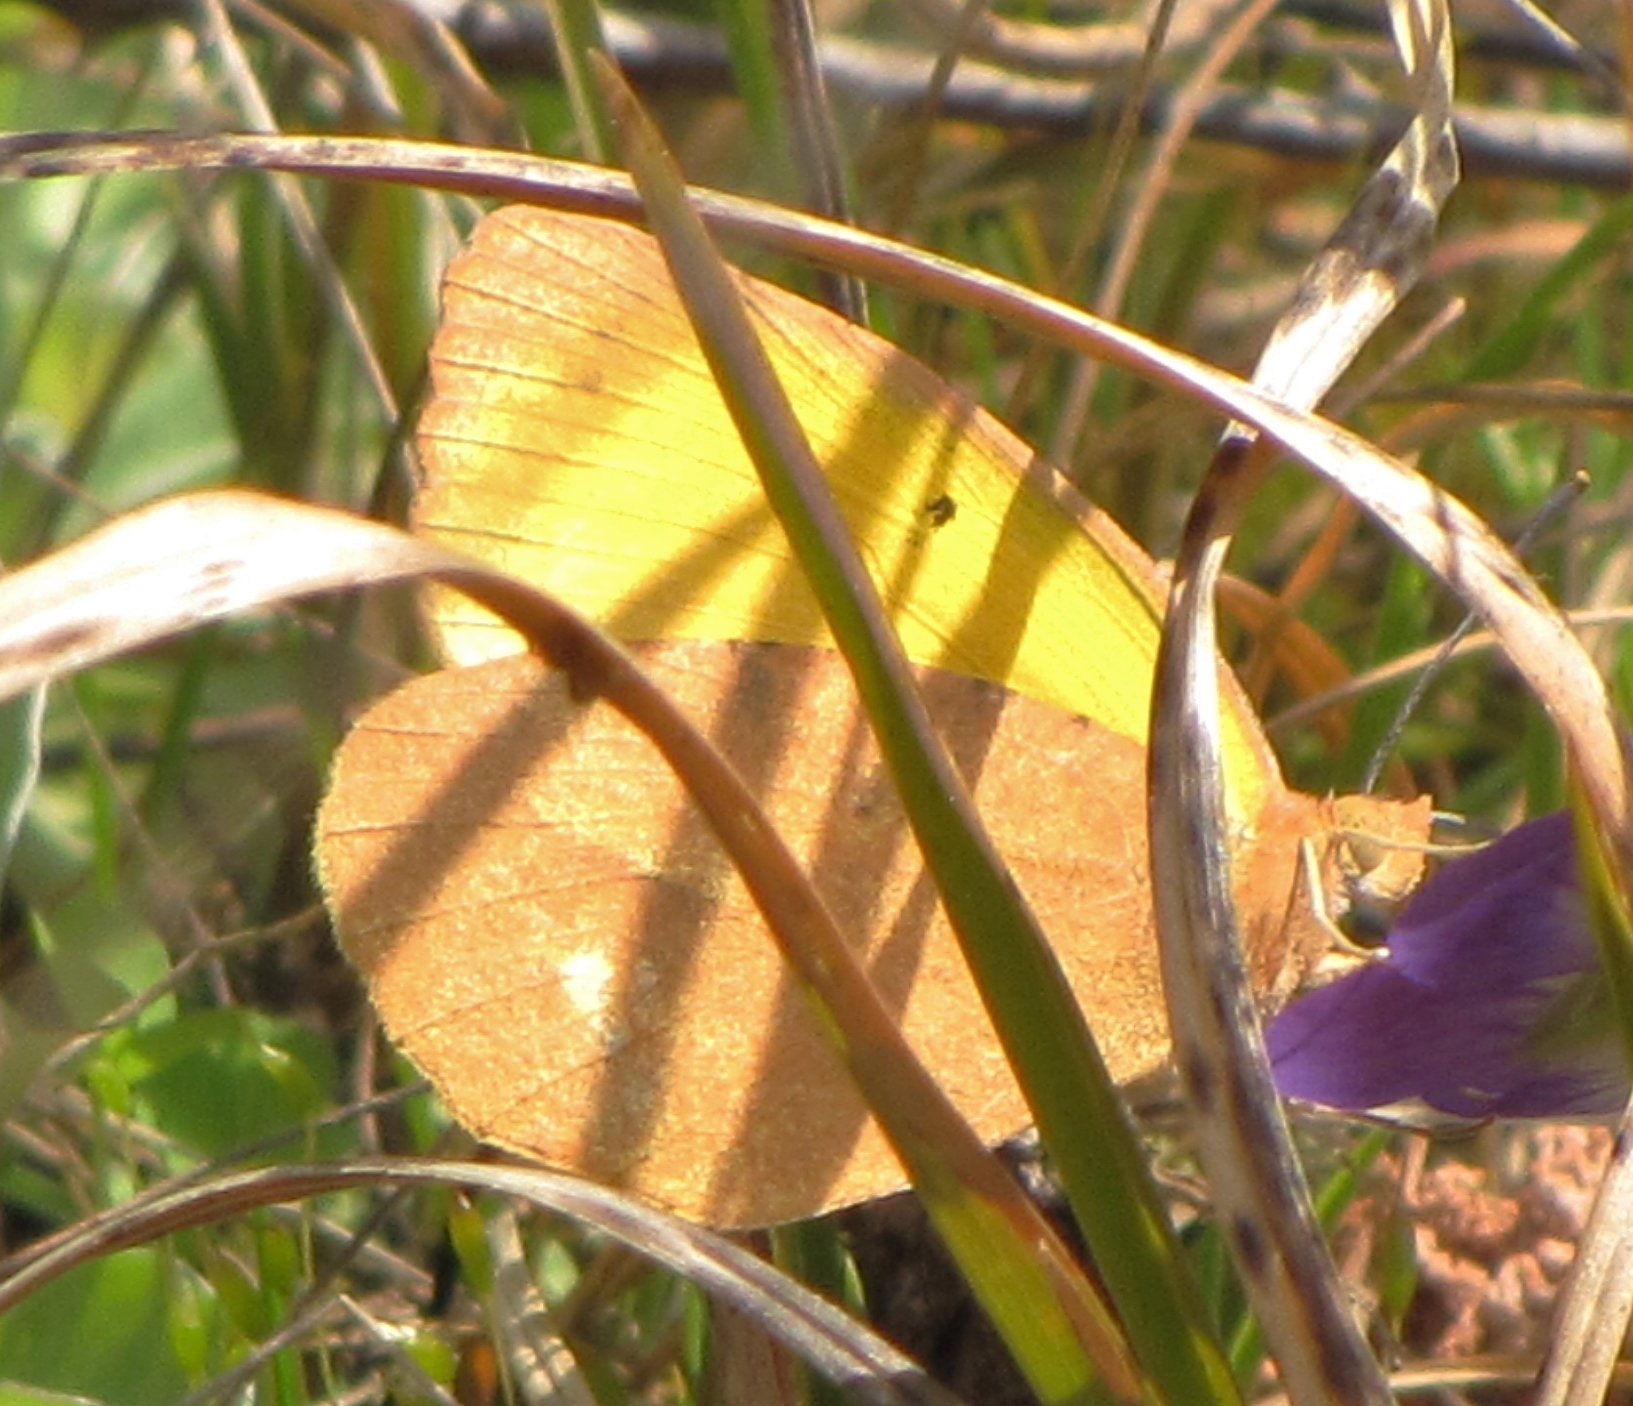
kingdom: Animalia
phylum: Arthropoda
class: Insecta
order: Lepidoptera
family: Pieridae
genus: Abaeis
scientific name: Abaeis nicippe
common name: Sleepy orange
